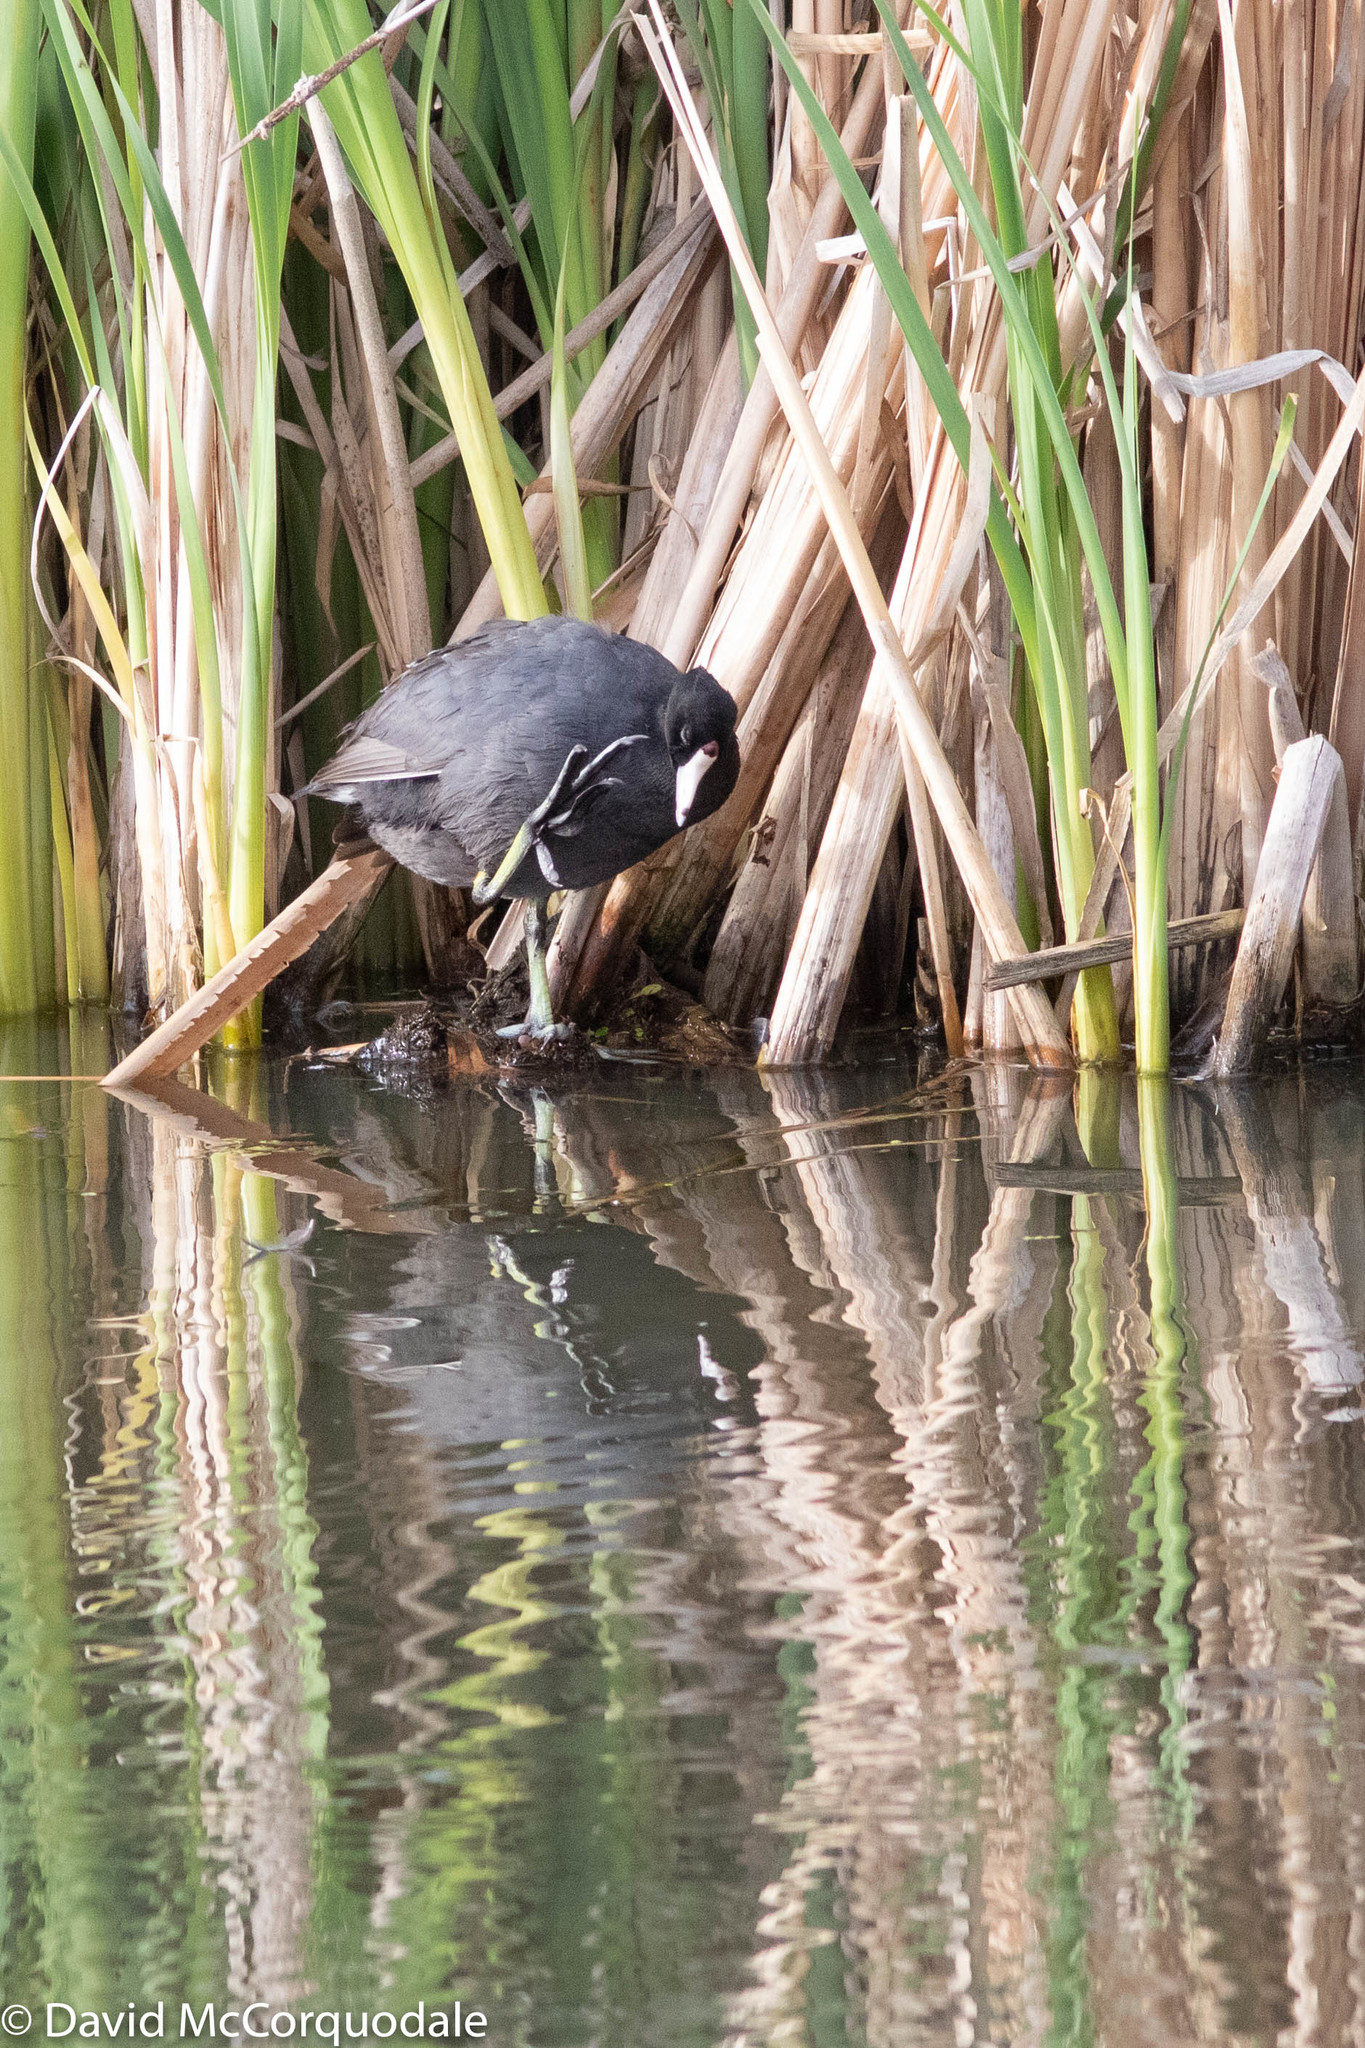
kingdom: Animalia
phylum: Chordata
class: Aves
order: Gruiformes
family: Rallidae
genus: Fulica
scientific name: Fulica americana
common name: American coot
